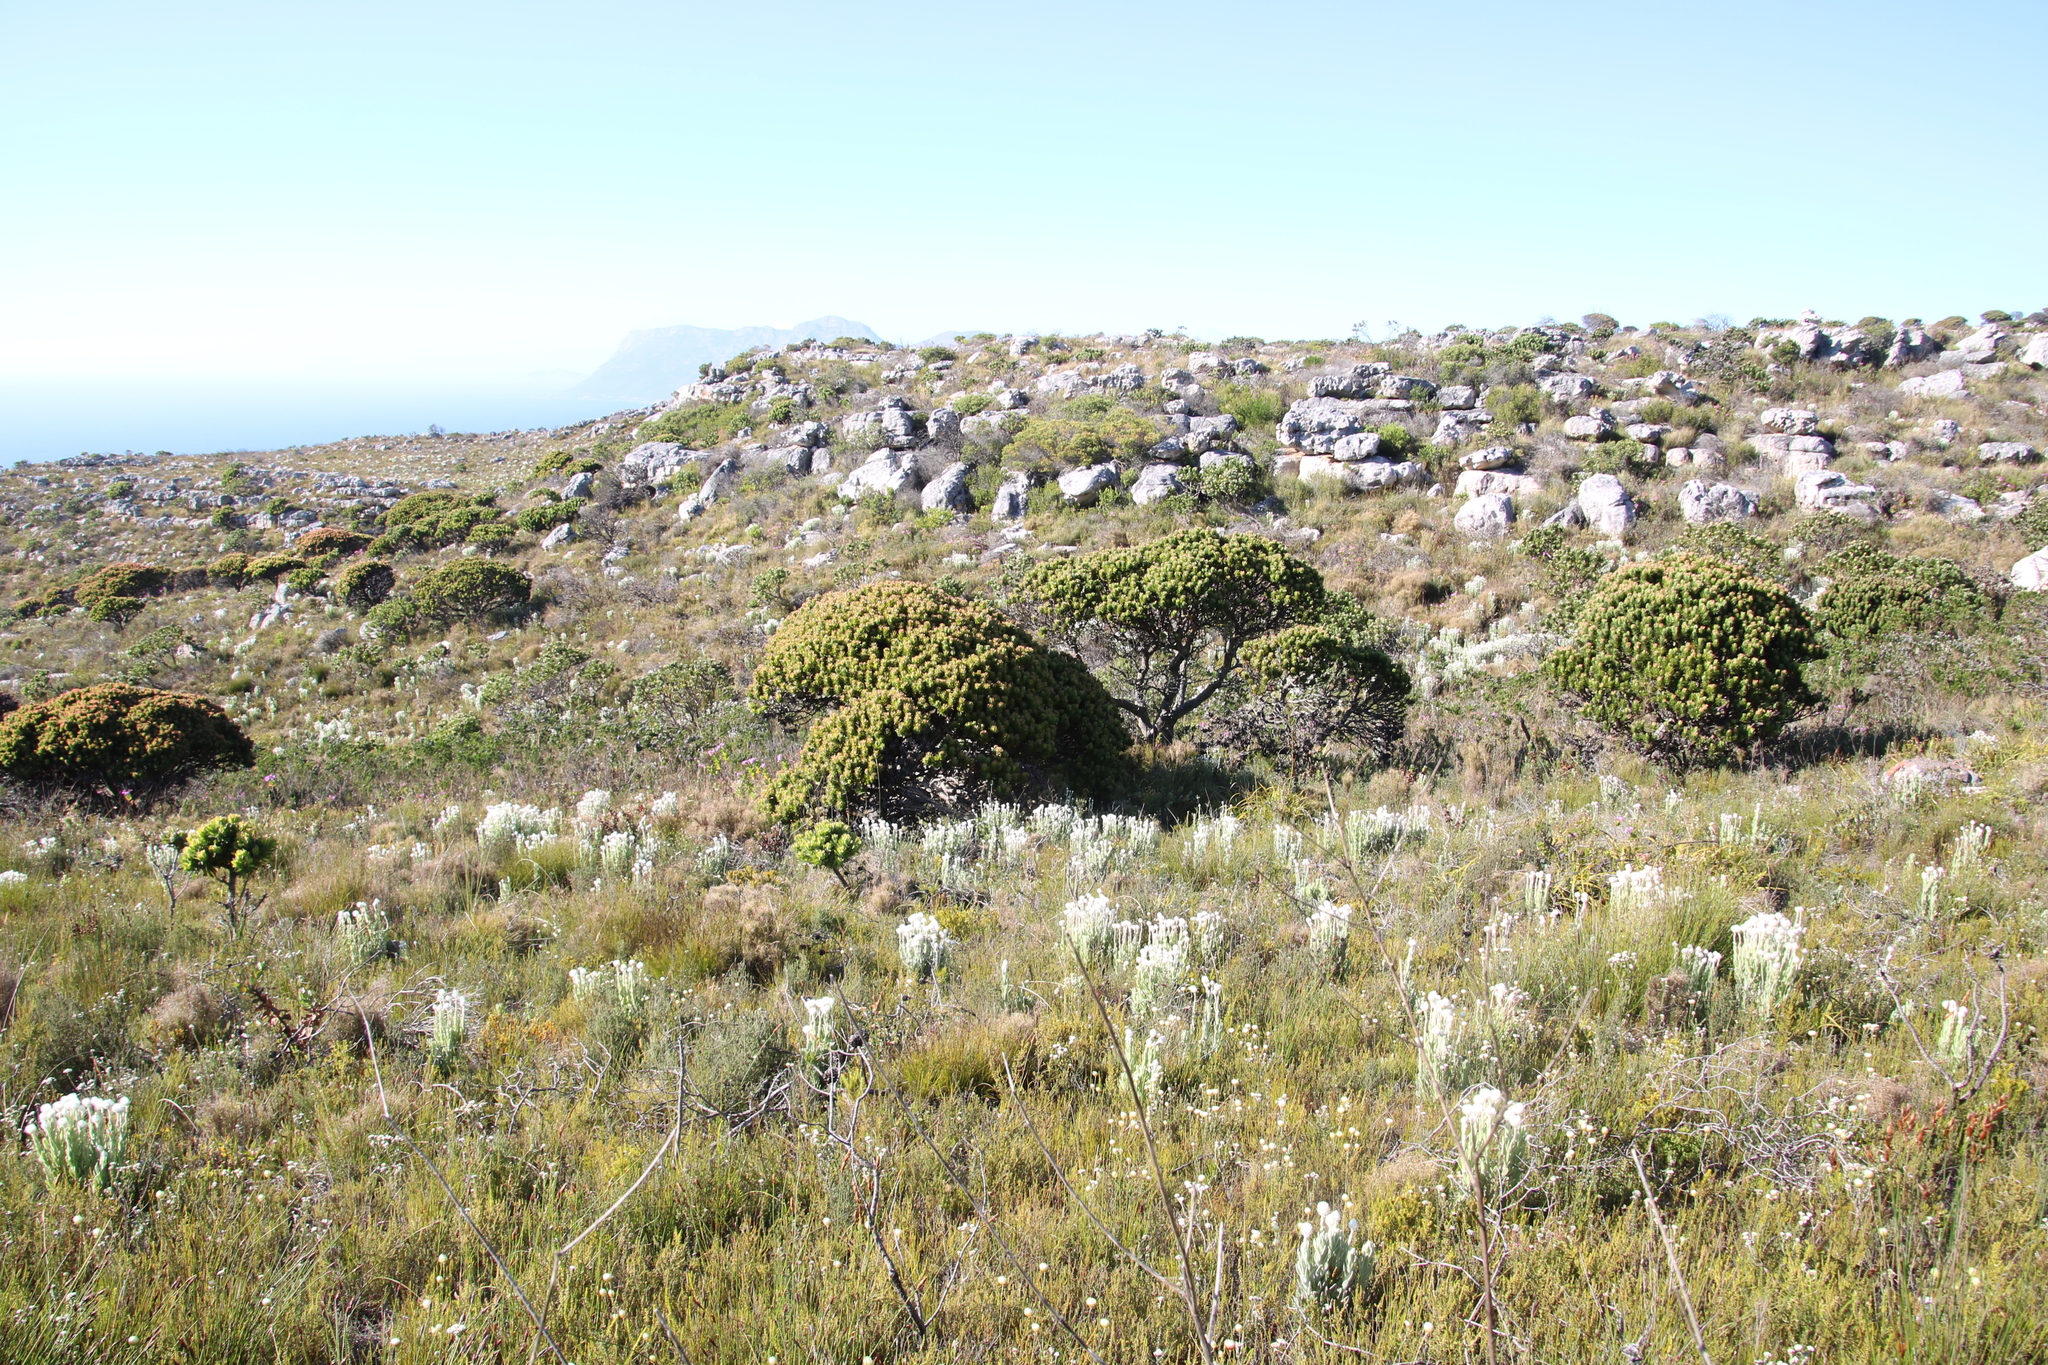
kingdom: Plantae
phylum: Tracheophyta
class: Magnoliopsida
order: Asterales
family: Asteraceae
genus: Syncarpha
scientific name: Syncarpha vestita
